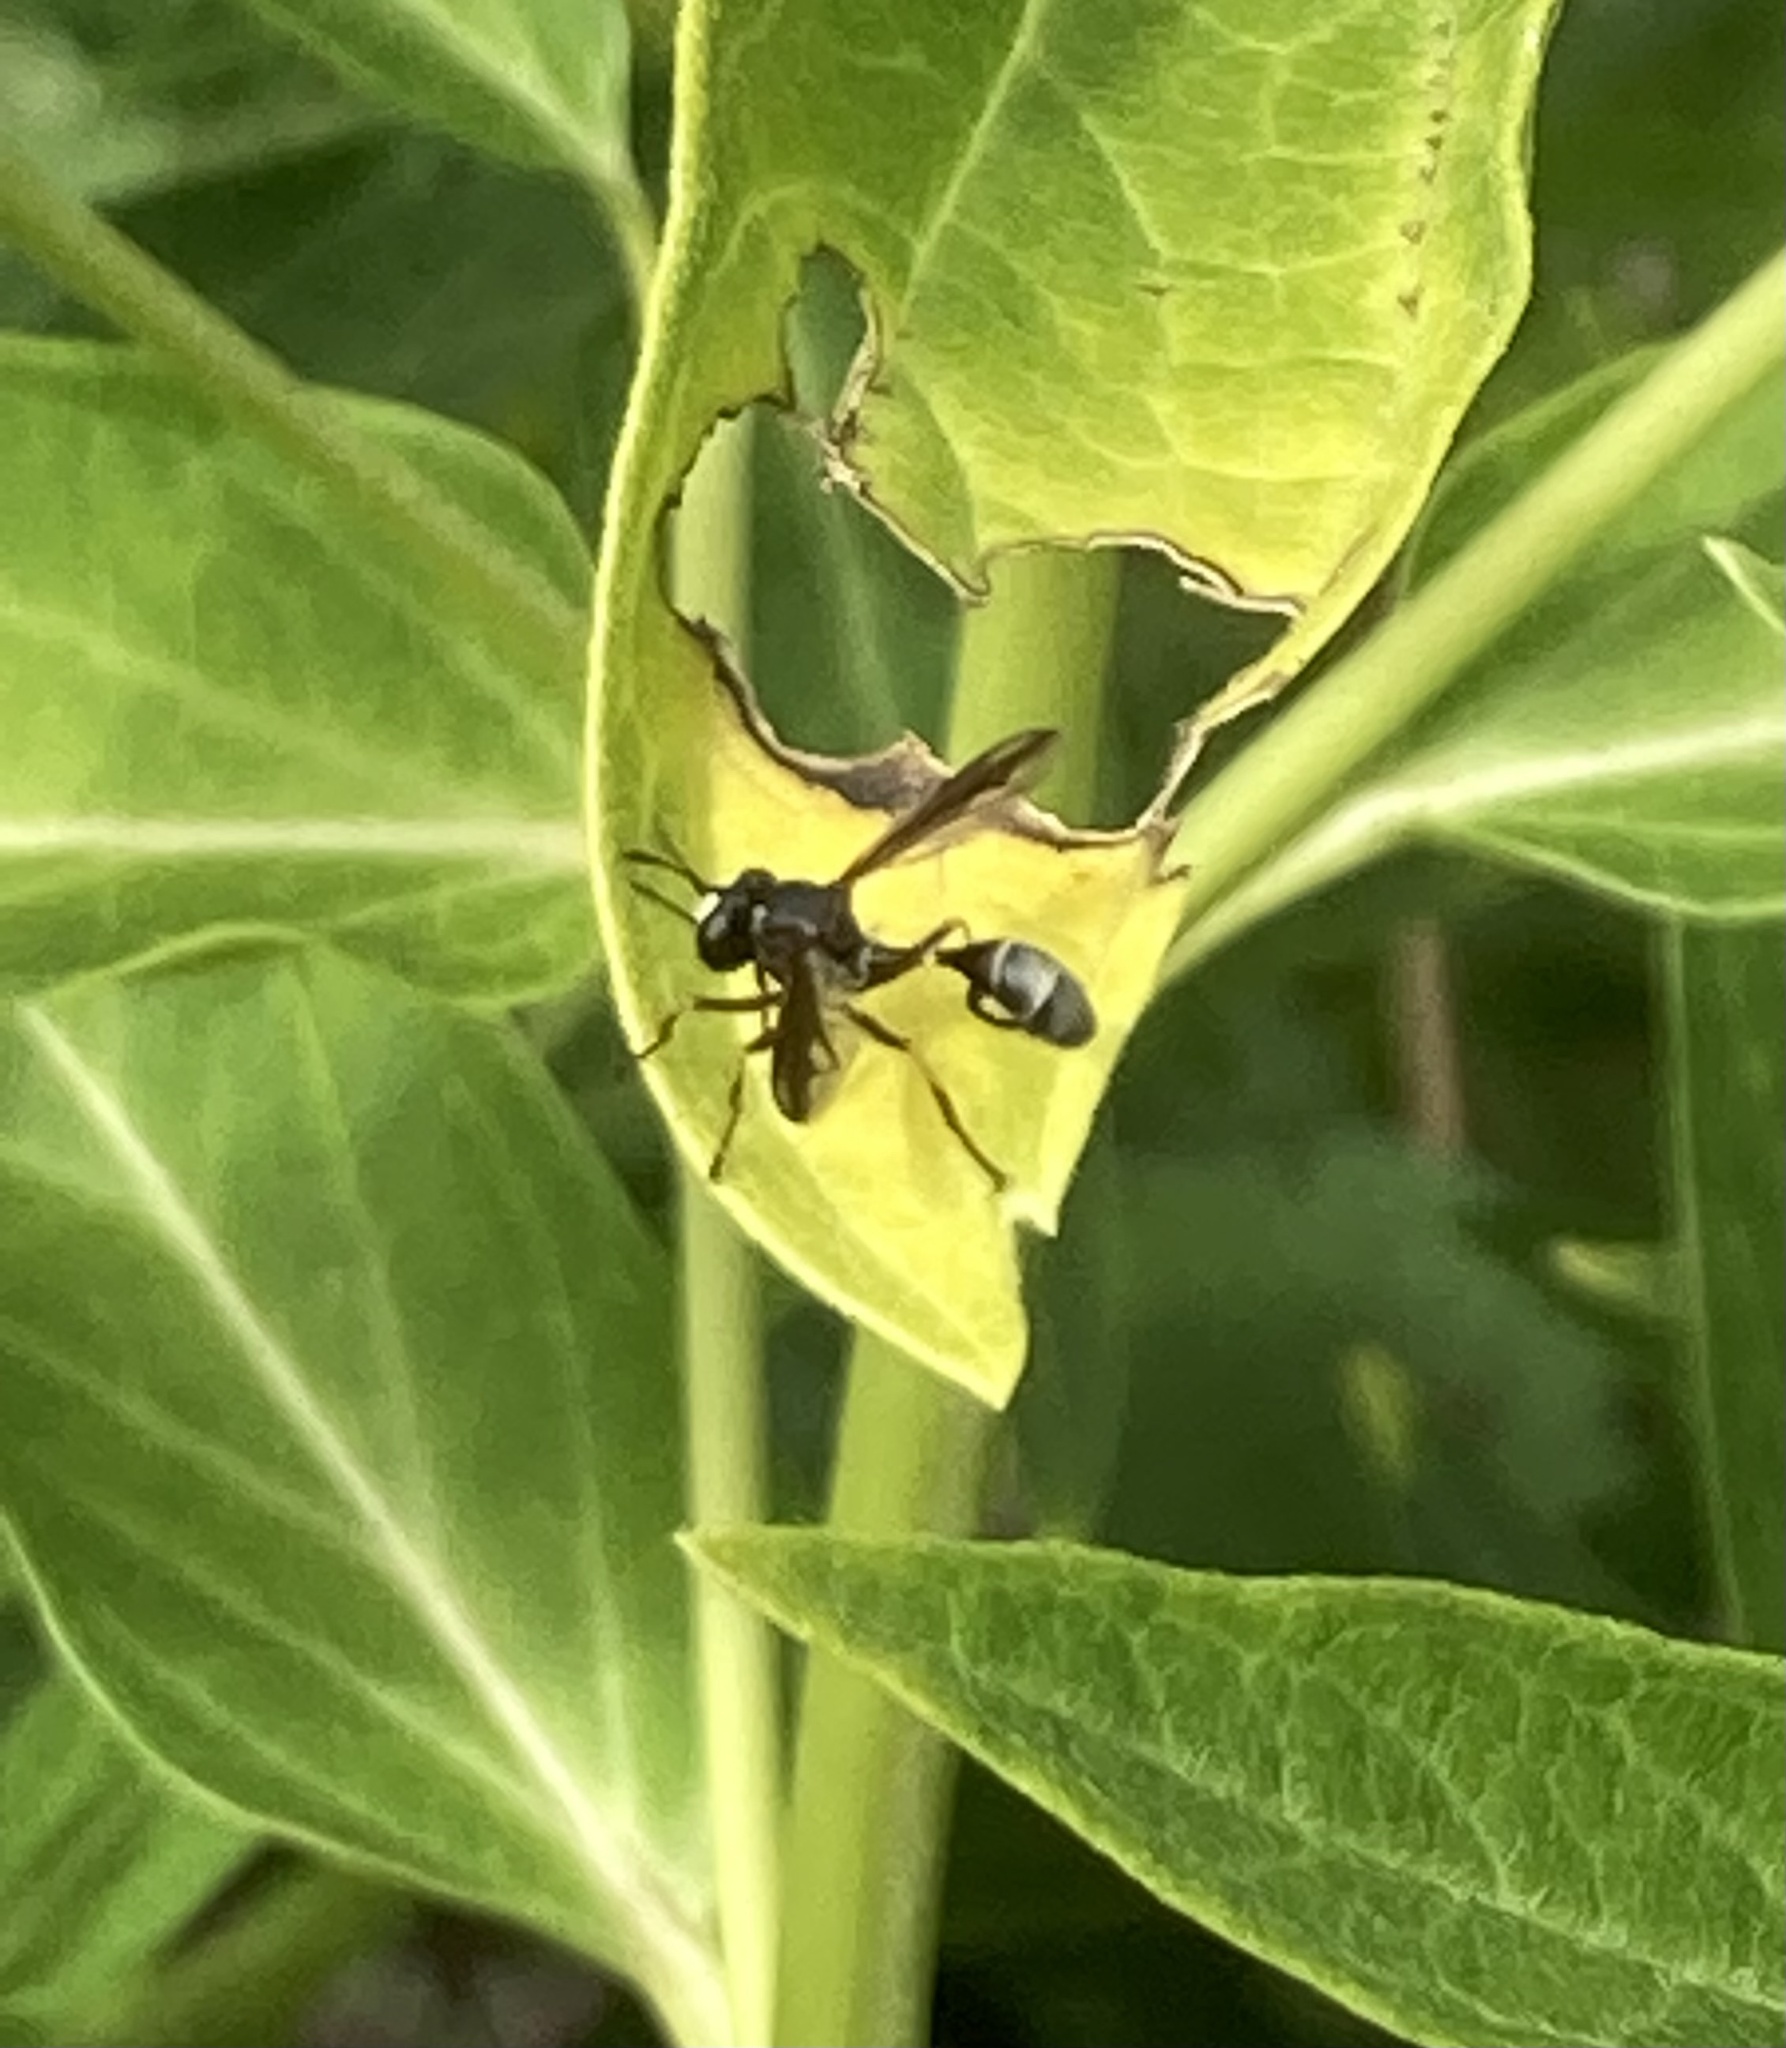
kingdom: Animalia
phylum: Arthropoda
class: Insecta
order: Diptera
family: Conopidae
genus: Physocephala
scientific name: Physocephala furcillata
